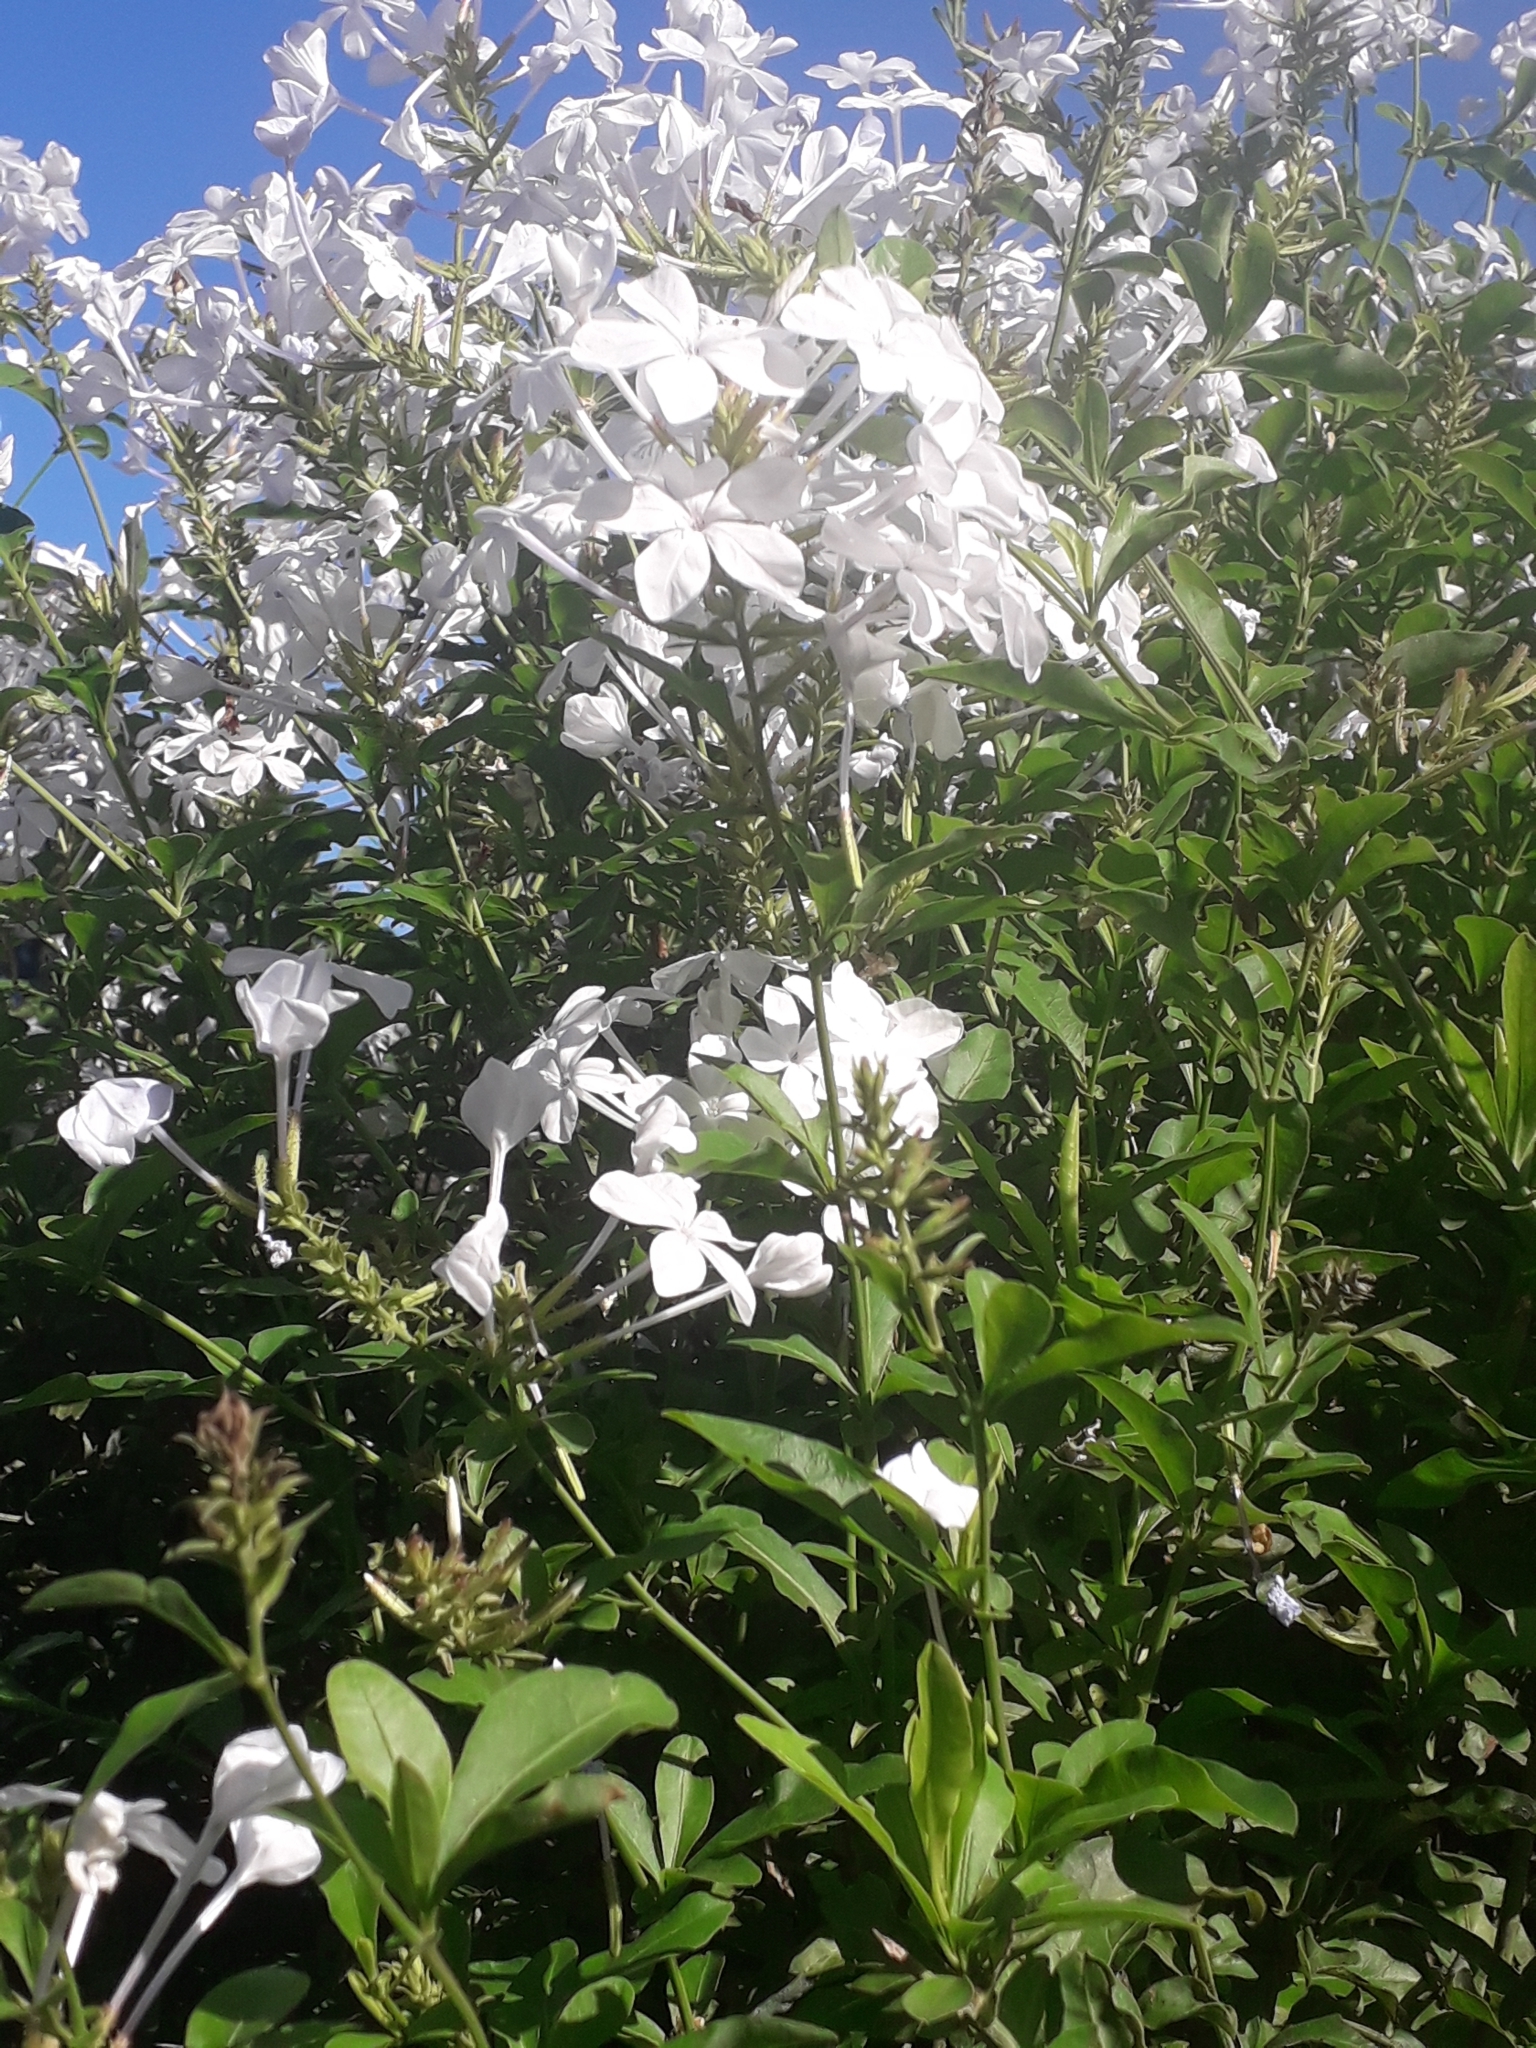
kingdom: Plantae
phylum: Tracheophyta
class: Magnoliopsida
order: Caryophyllales
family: Plumbaginaceae
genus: Plumbago
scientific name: Plumbago auriculata
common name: Cape leadwort
